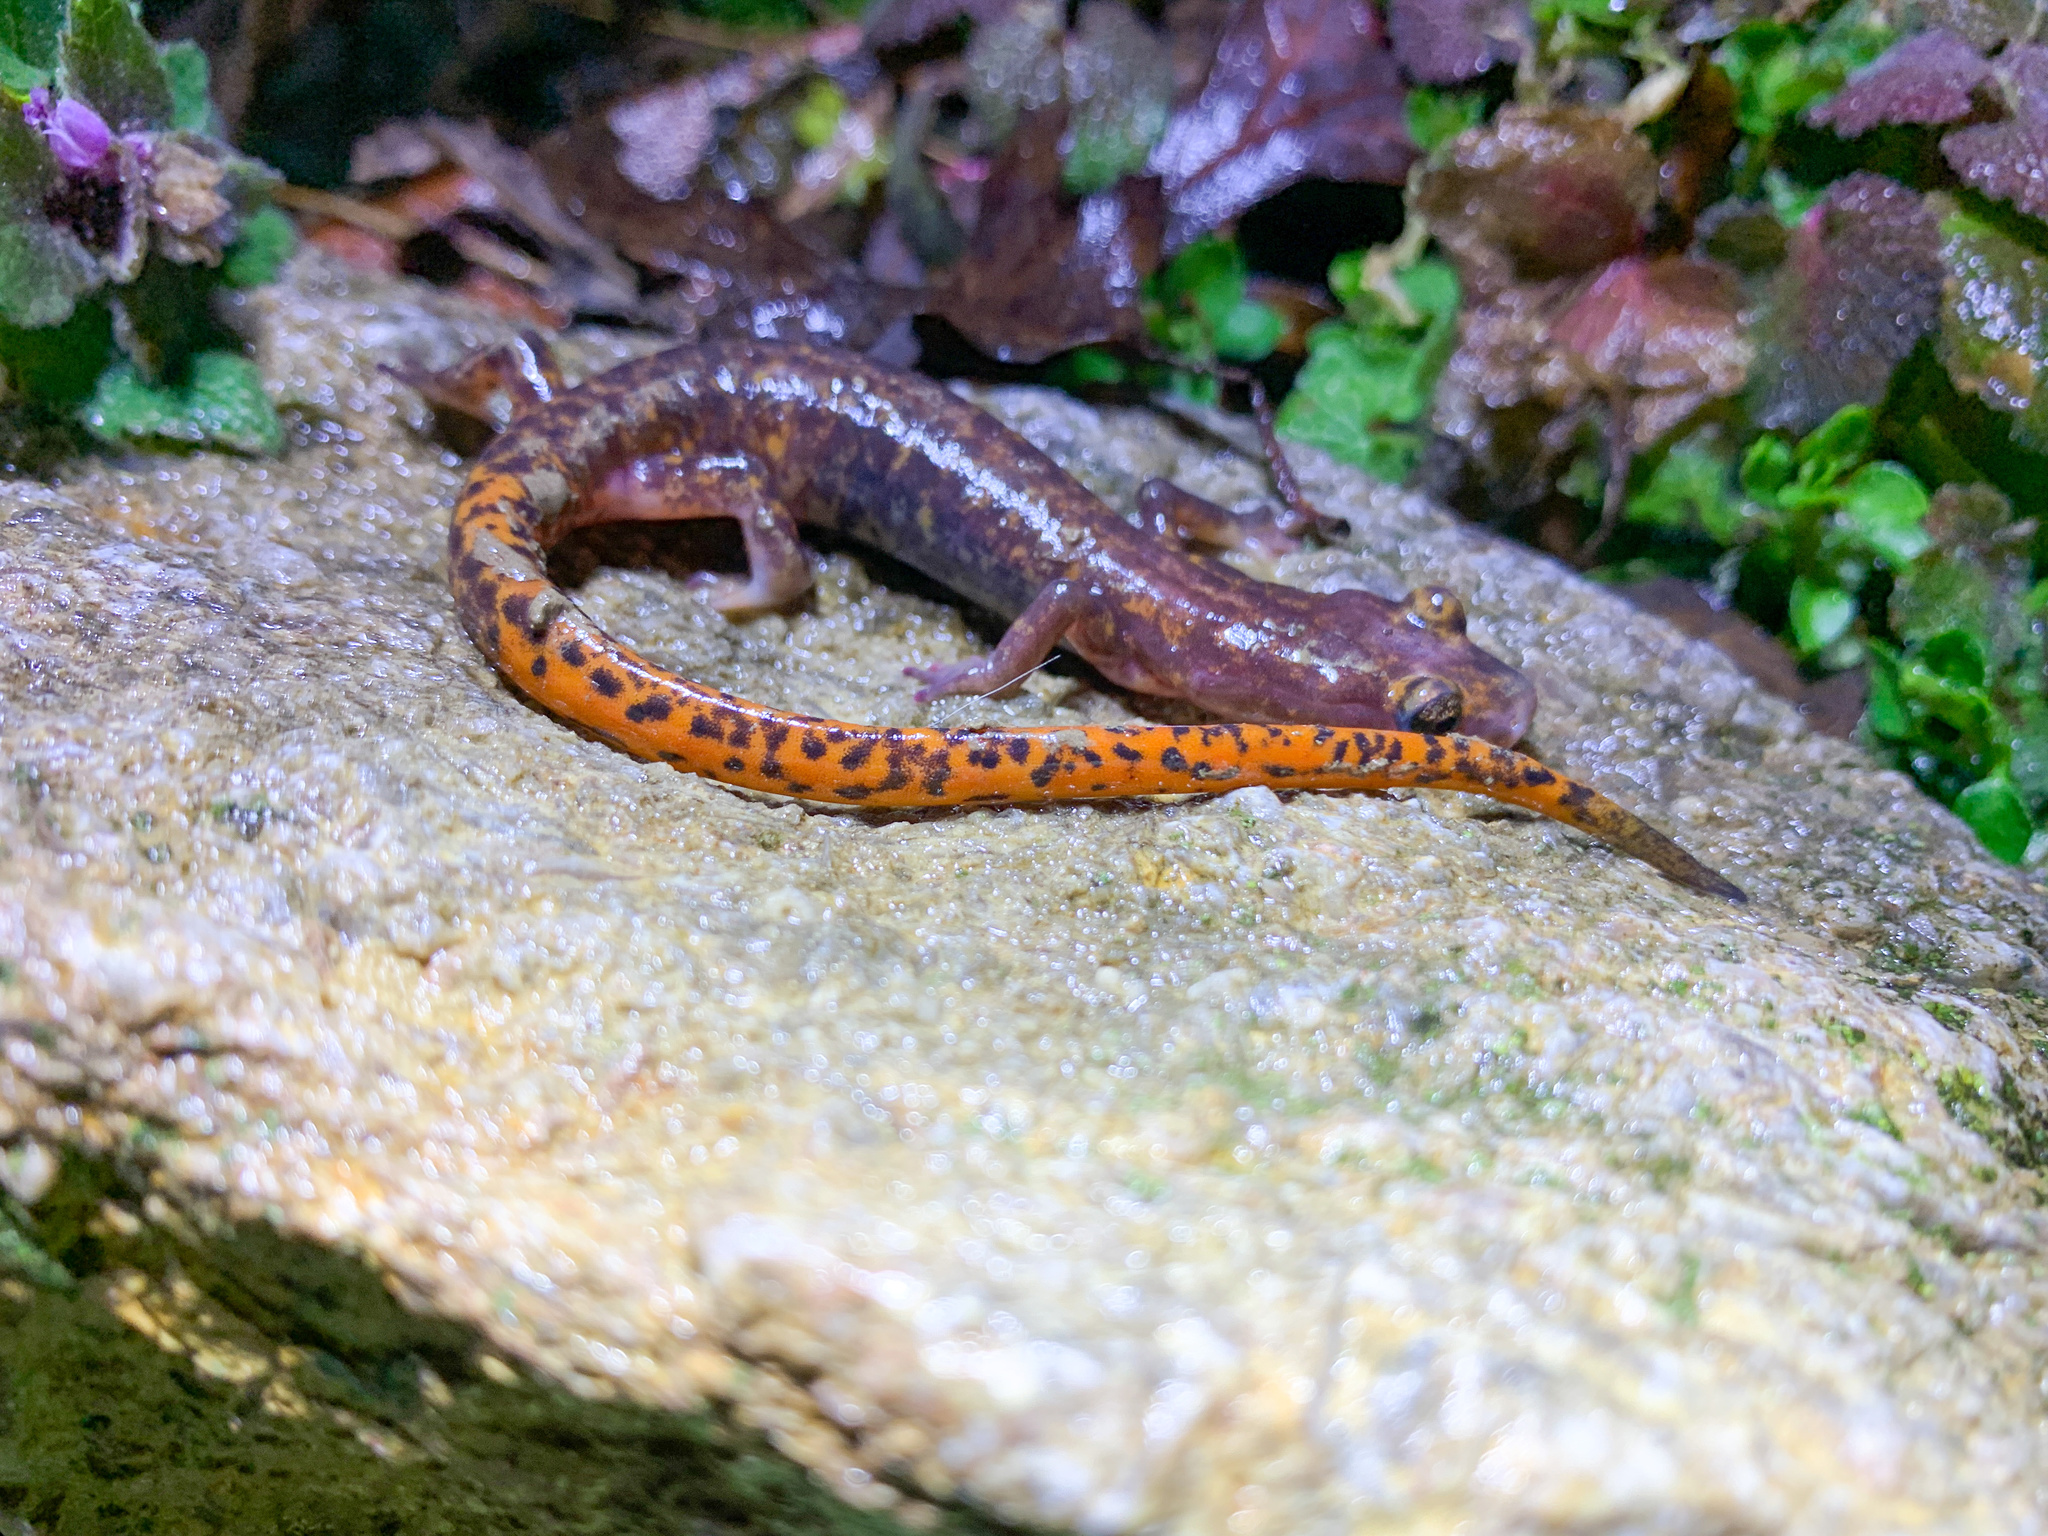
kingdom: Animalia
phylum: Chordata
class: Amphibia
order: Caudata
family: Plethodontidae
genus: Eurycea
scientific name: Eurycea lucifuga
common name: Cave salamander
